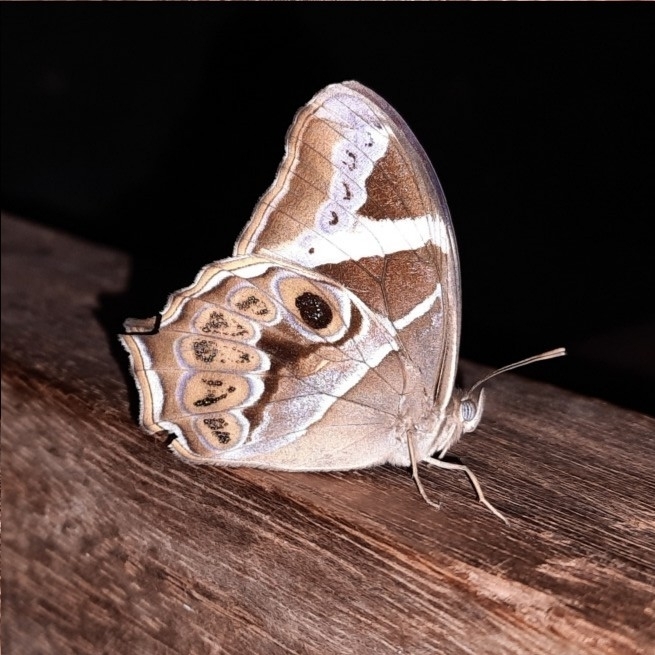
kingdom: Animalia
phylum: Arthropoda
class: Insecta
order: Lepidoptera
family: Nymphalidae
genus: Lethe
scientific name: Lethe europa
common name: Bamboo treebrown
